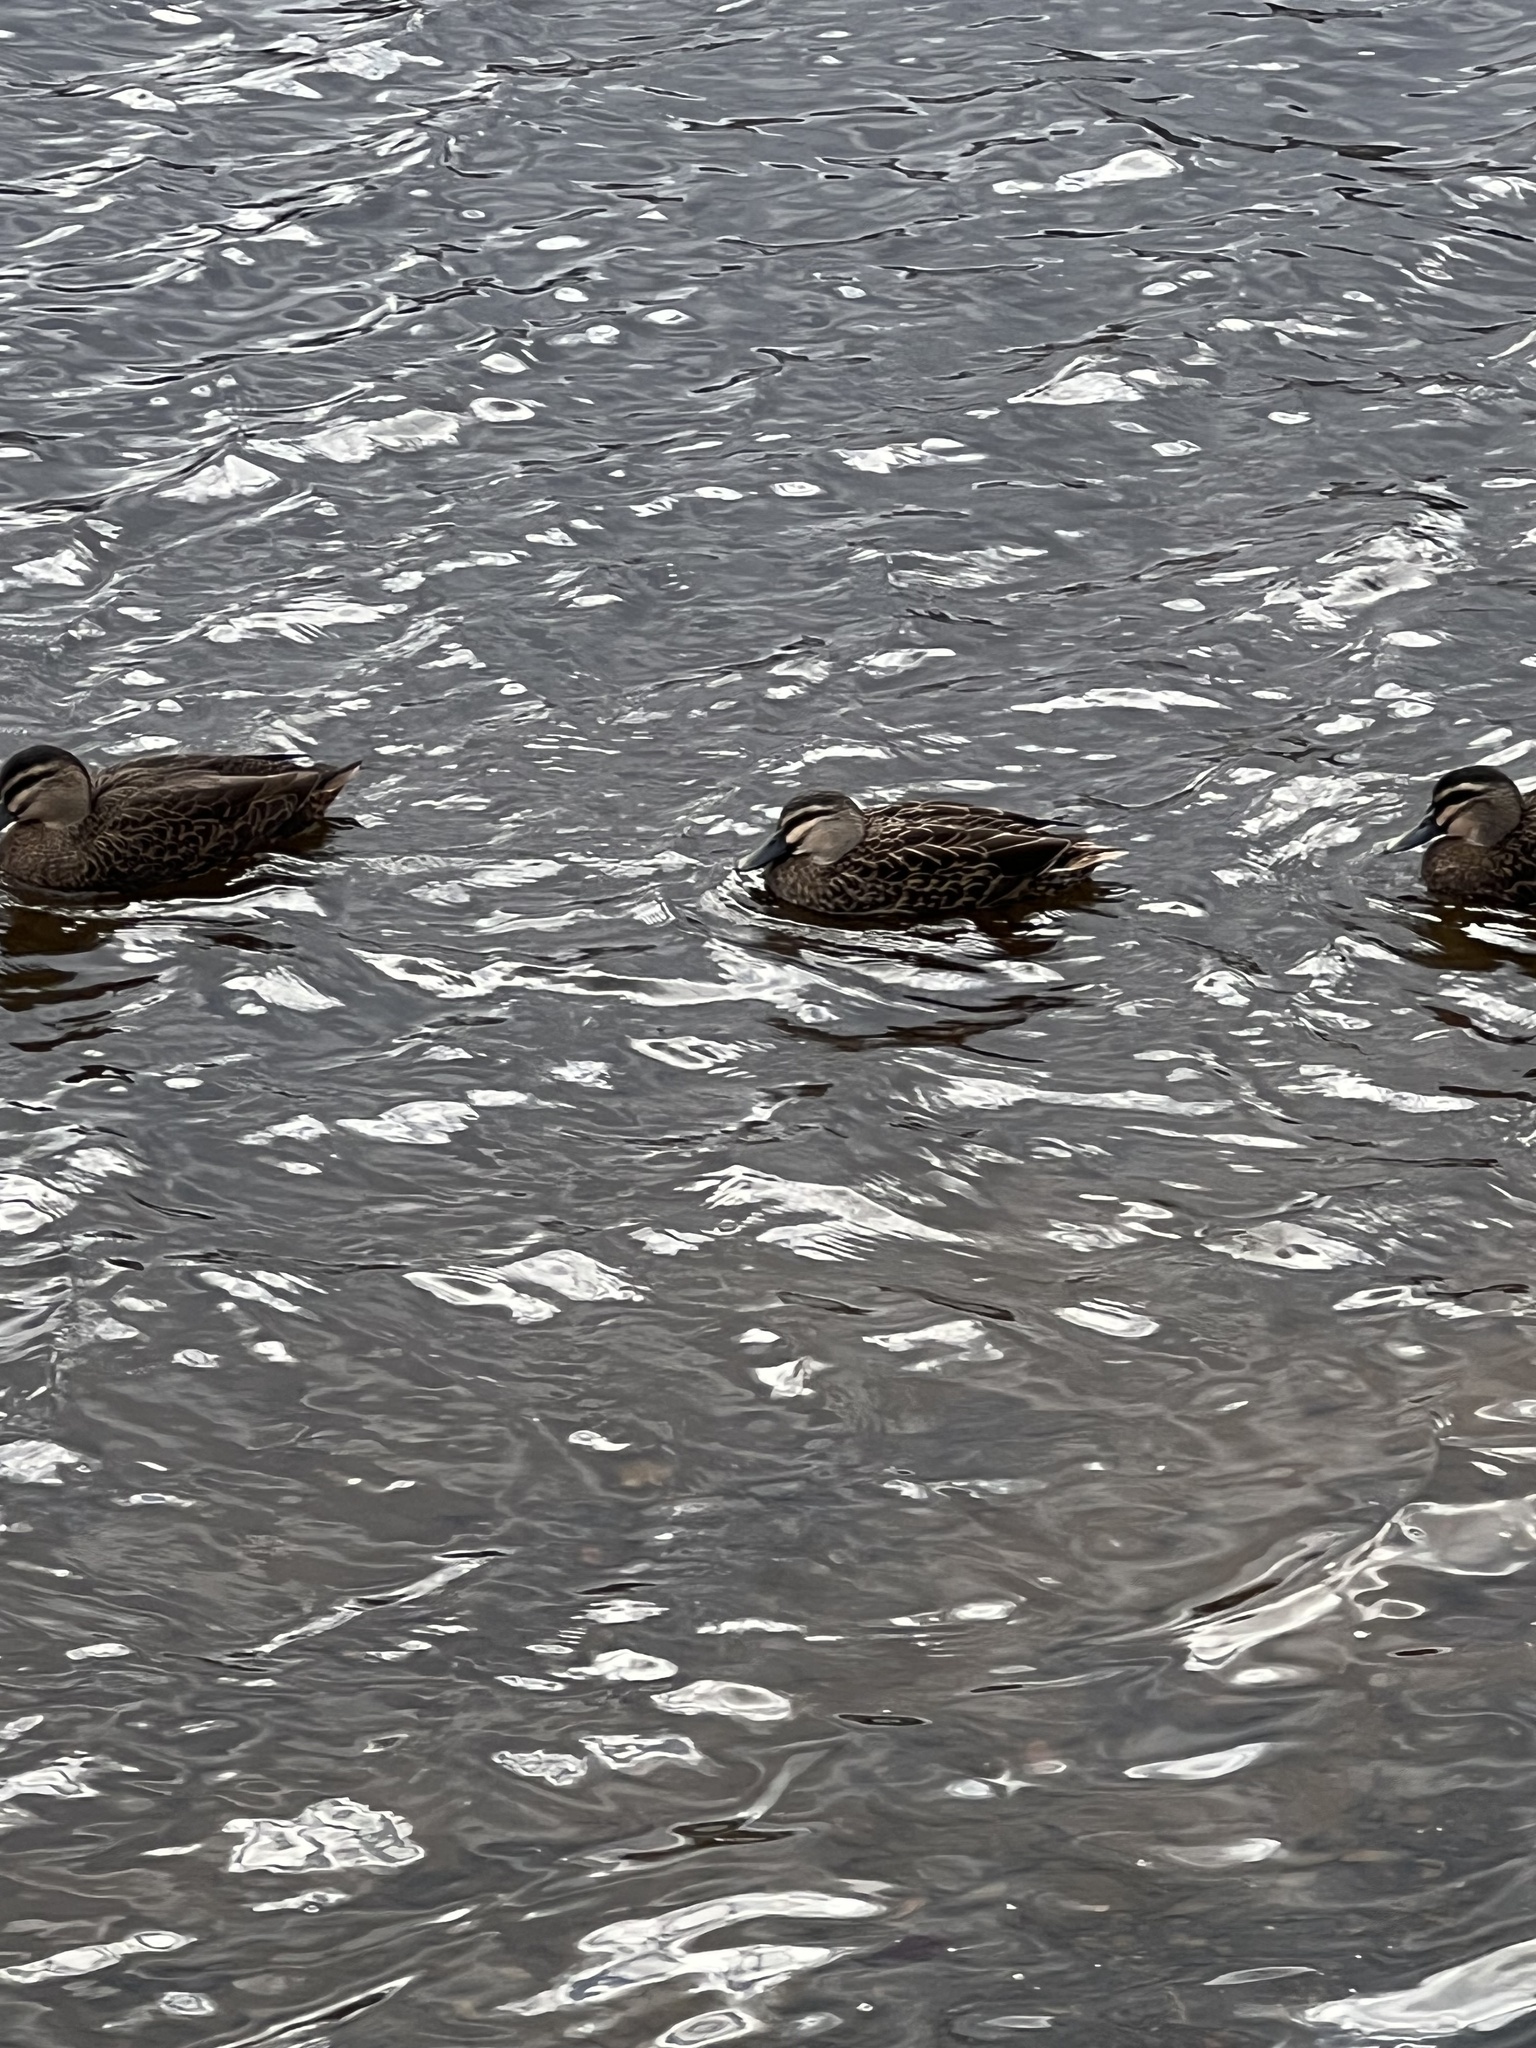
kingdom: Animalia
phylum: Chordata
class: Aves
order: Anseriformes
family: Anatidae
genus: Anas
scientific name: Anas
